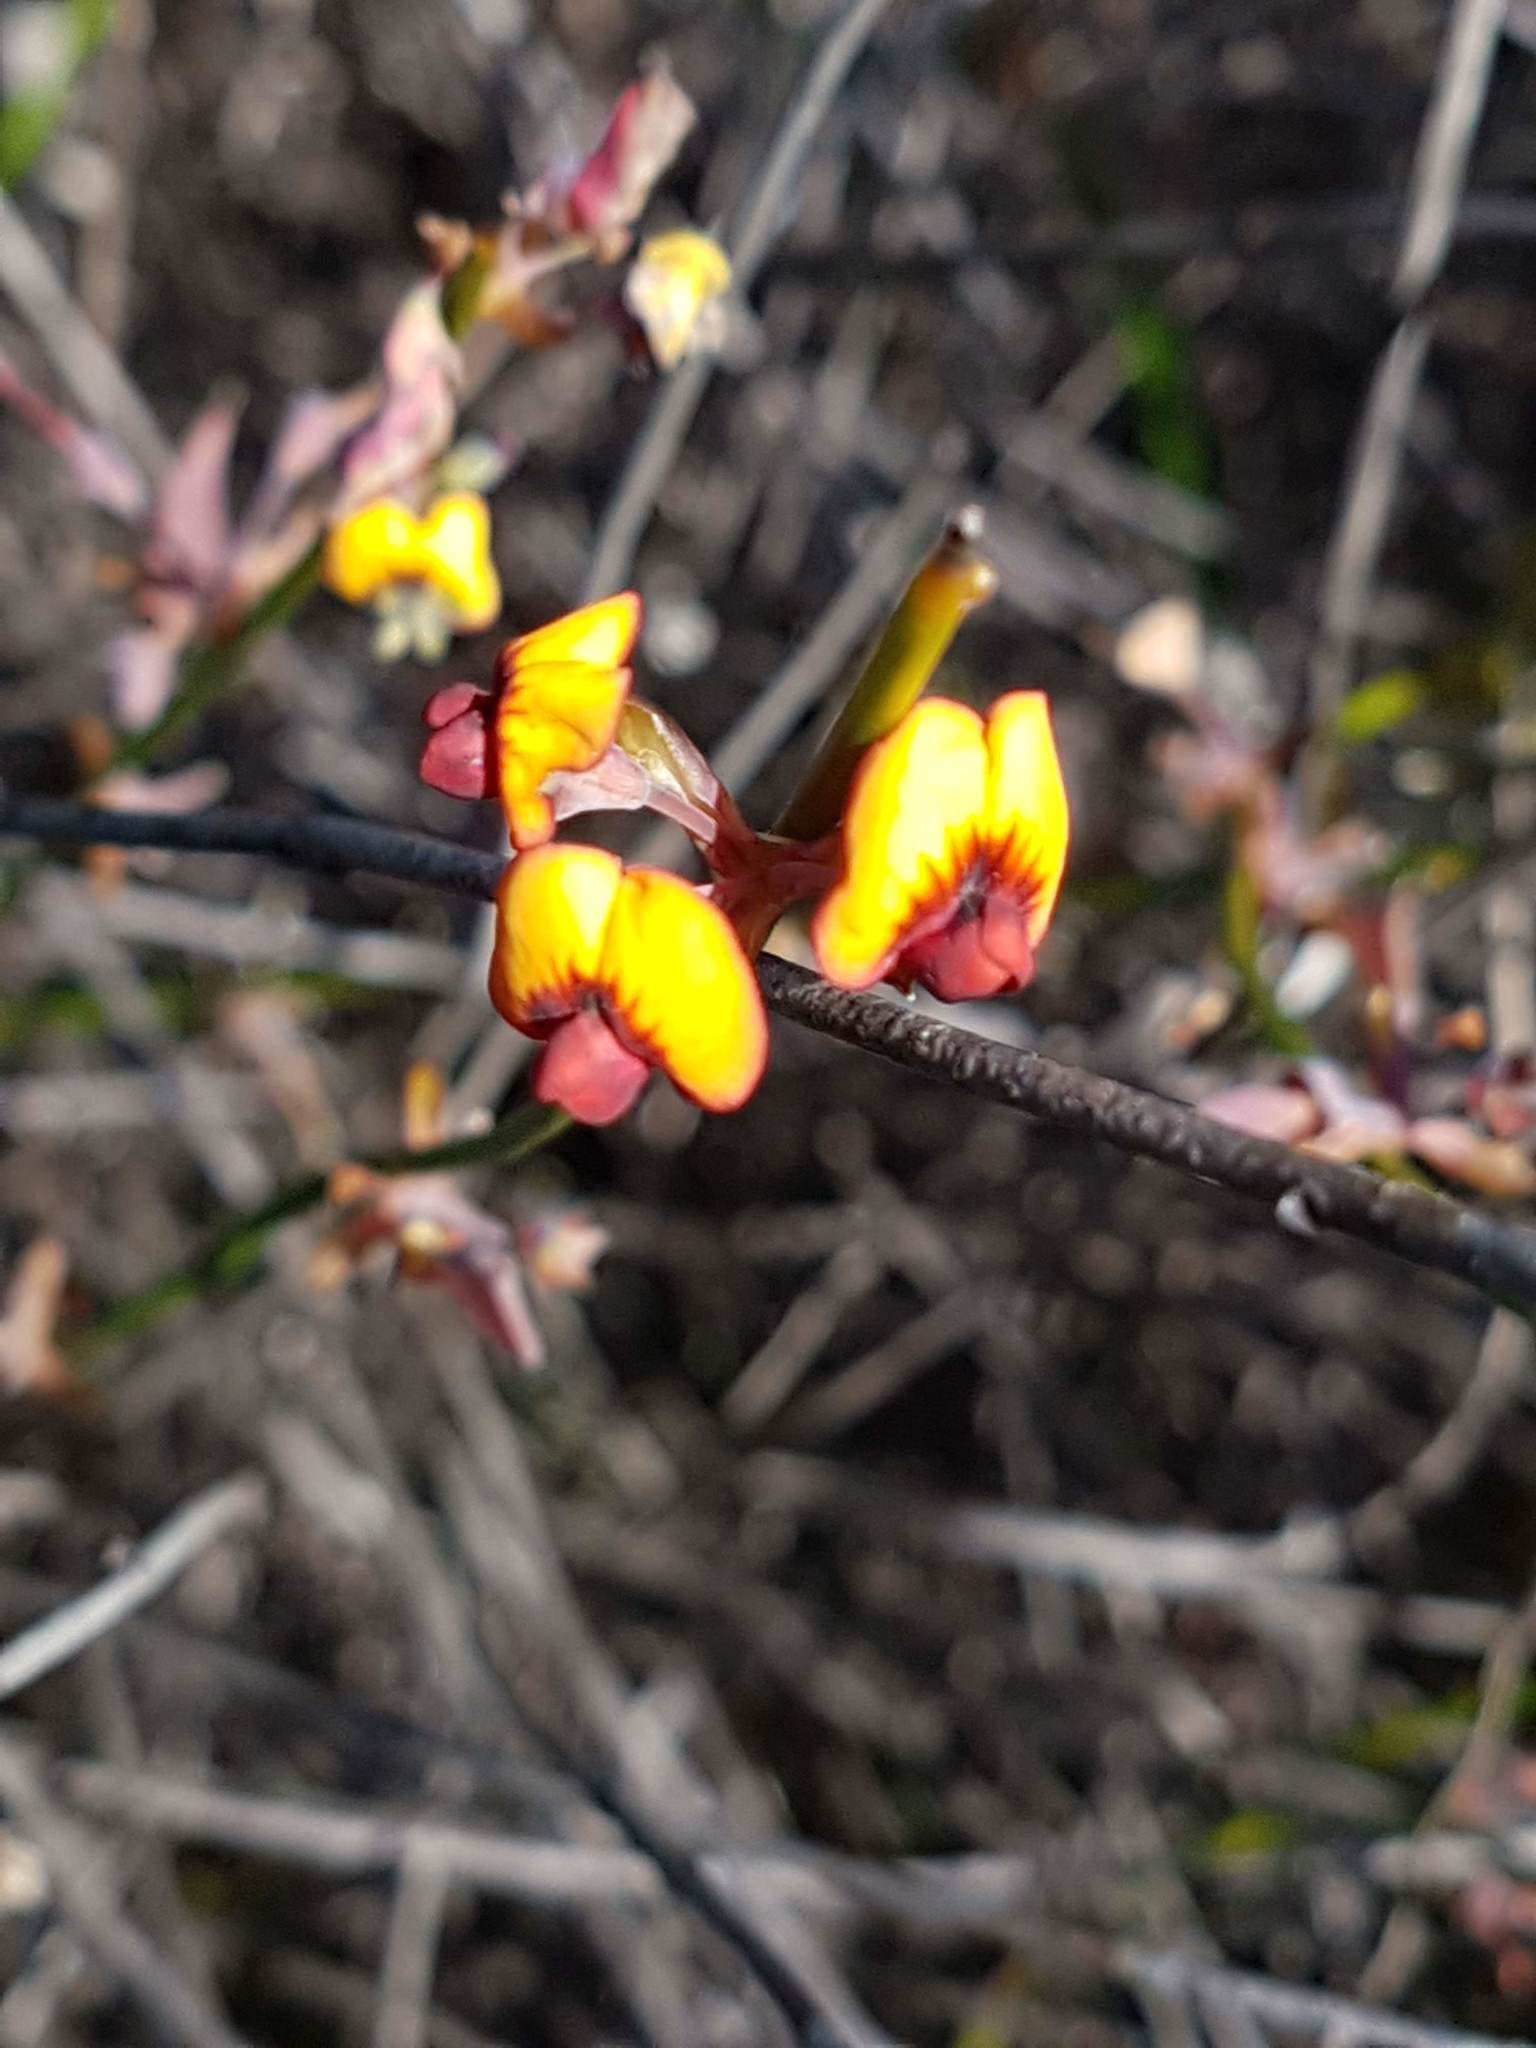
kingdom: Plantae
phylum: Tracheophyta
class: Magnoliopsida
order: Fabales
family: Fabaceae
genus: Daviesia
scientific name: Daviesia triflora
